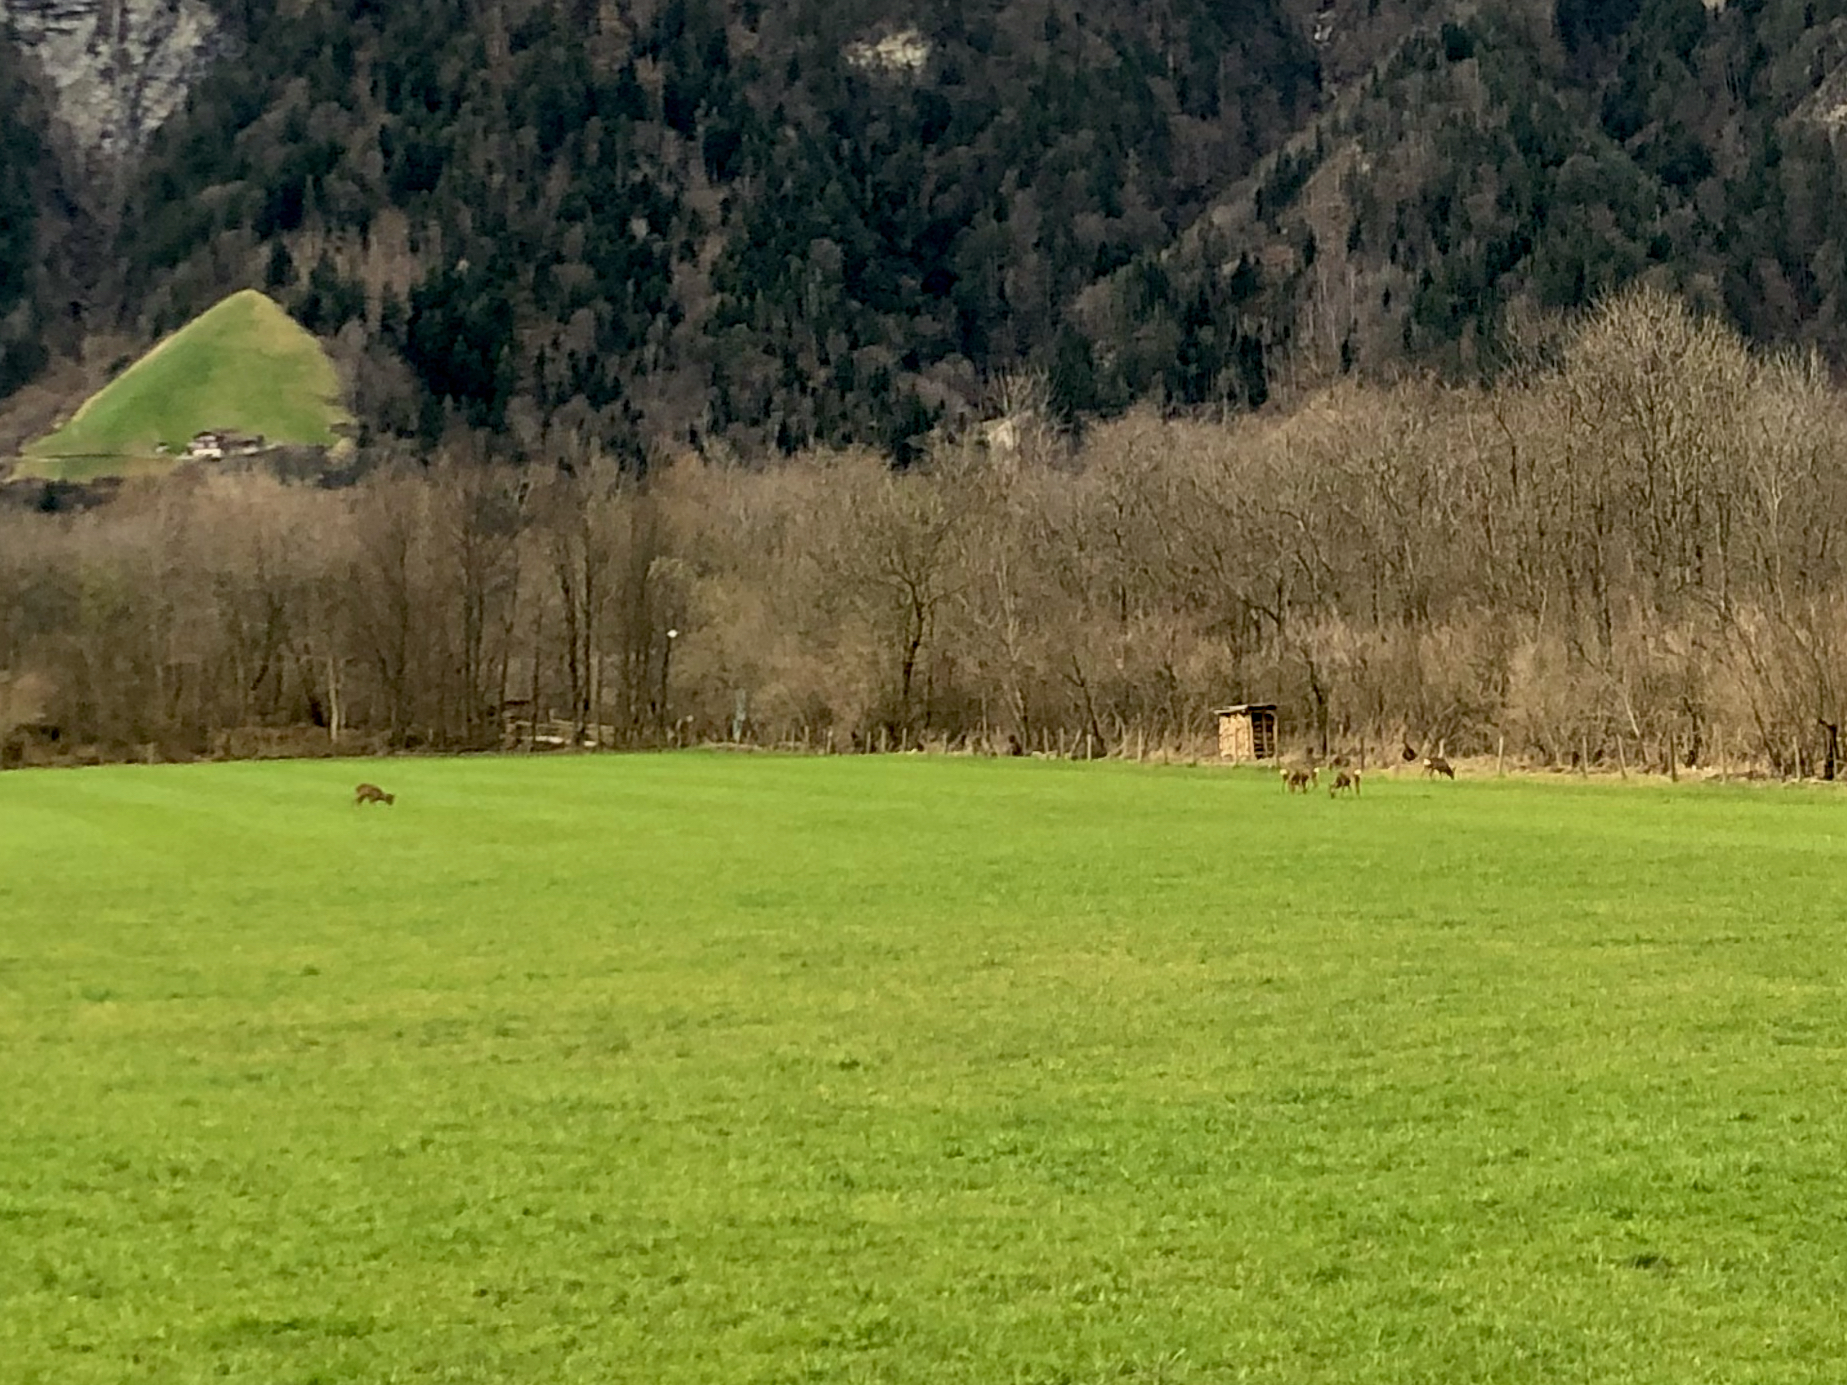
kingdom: Animalia
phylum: Chordata
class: Mammalia
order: Artiodactyla
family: Cervidae
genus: Capreolus
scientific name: Capreolus capreolus
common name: Western roe deer
